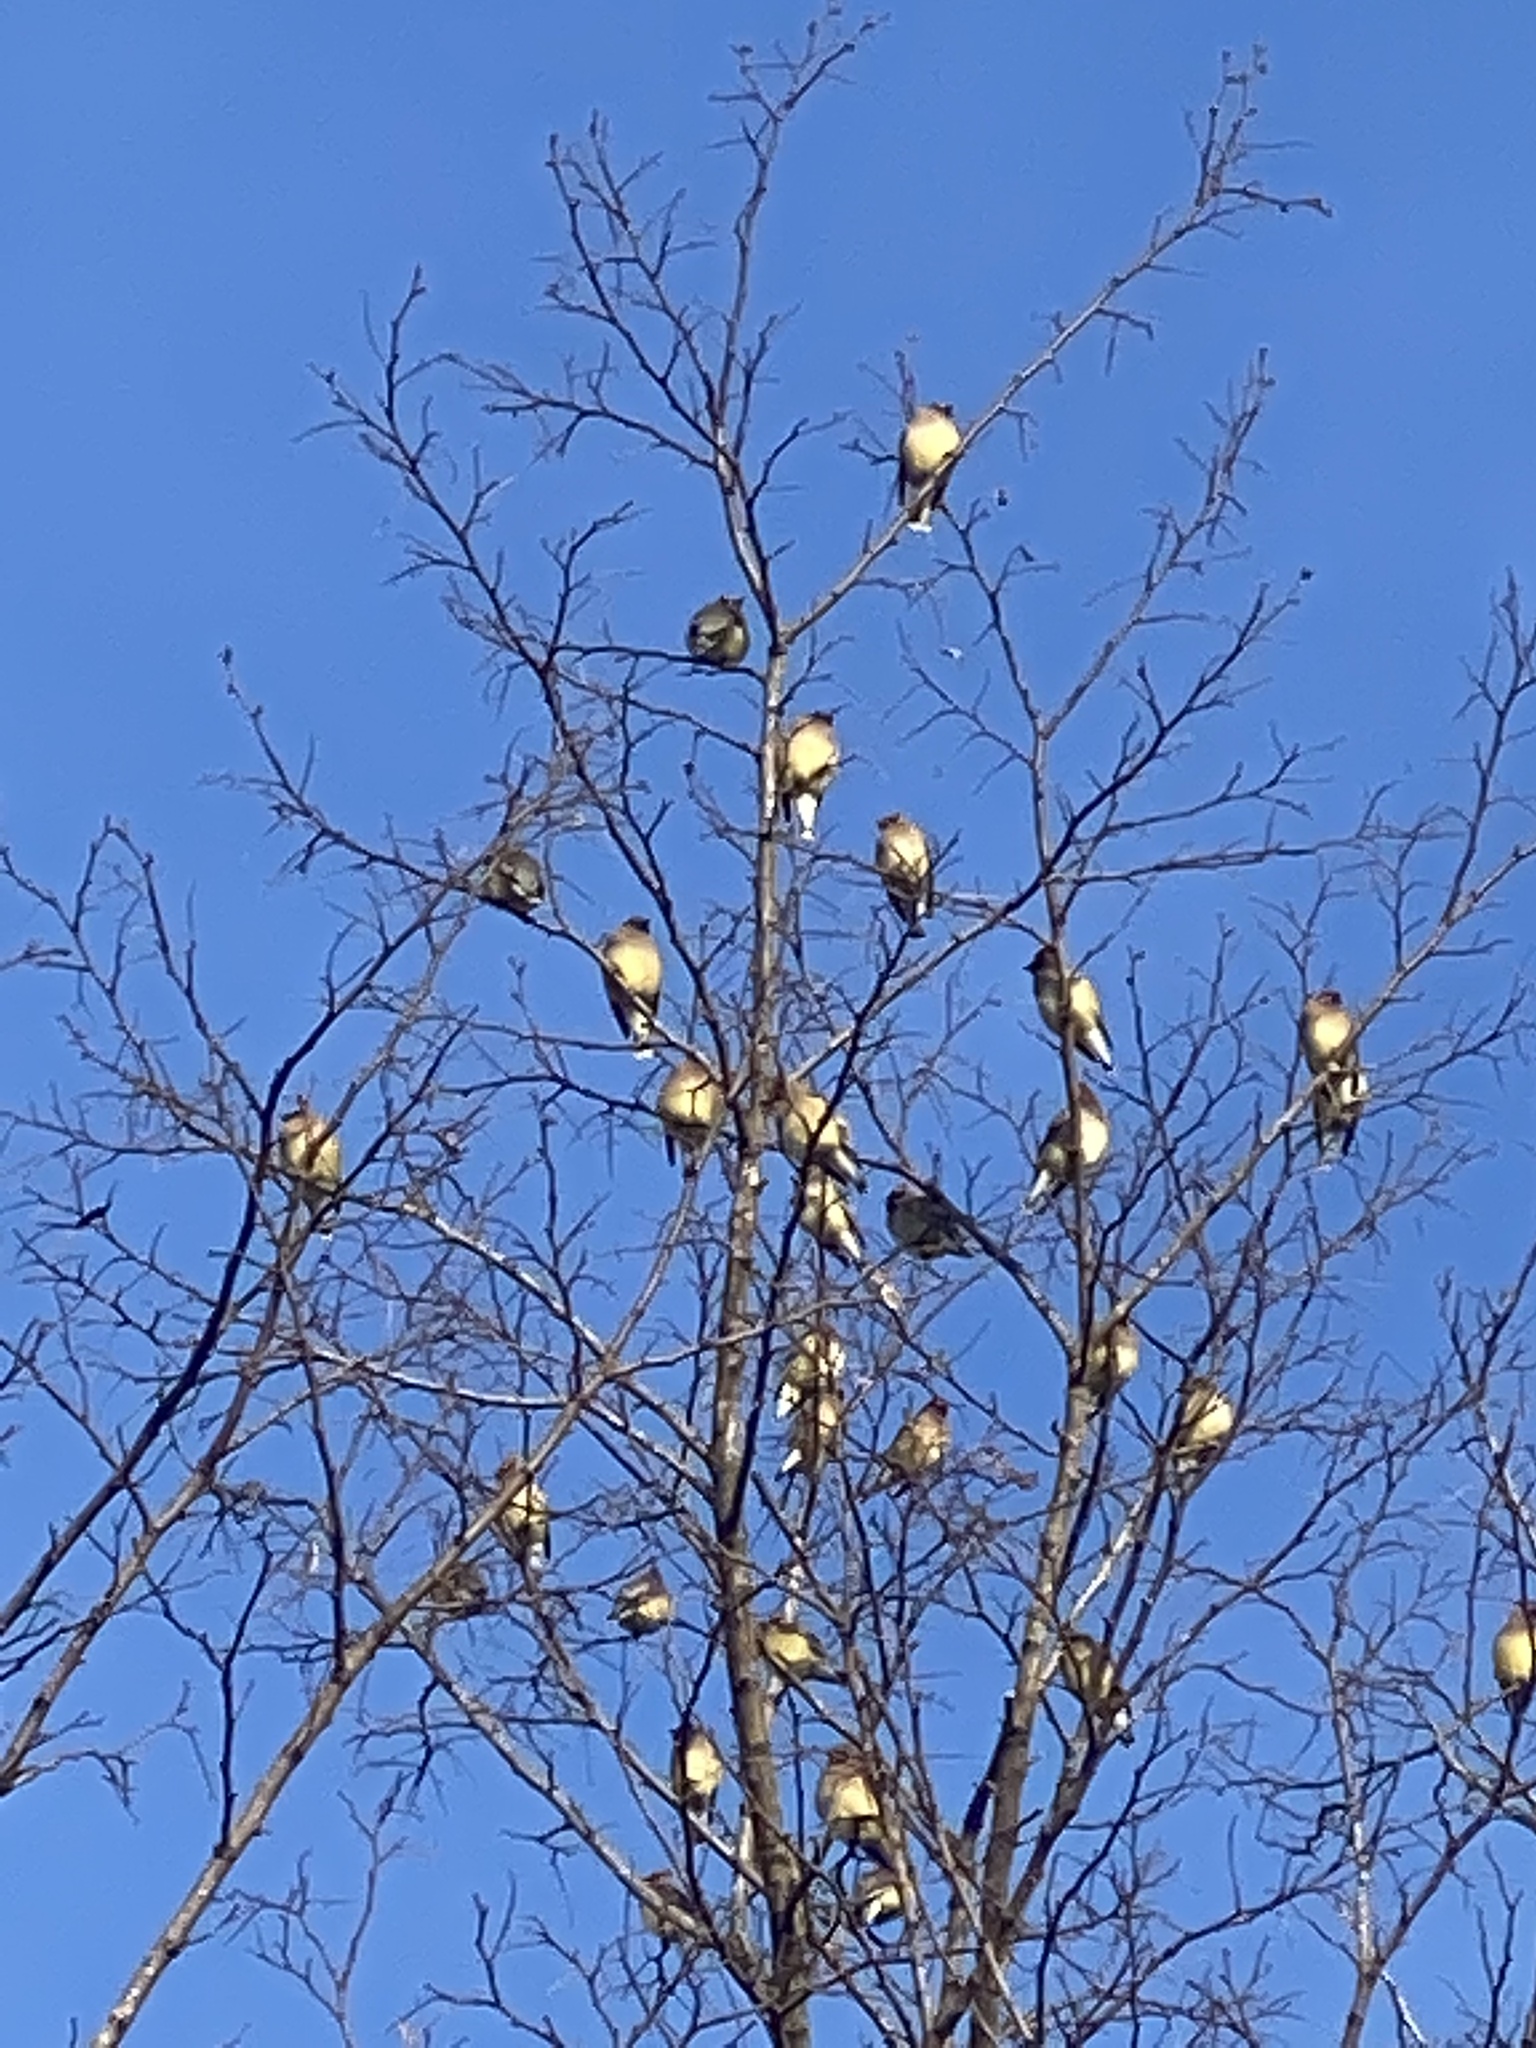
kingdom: Animalia
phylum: Chordata
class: Aves
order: Passeriformes
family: Bombycillidae
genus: Bombycilla
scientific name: Bombycilla cedrorum
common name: Cedar waxwing
